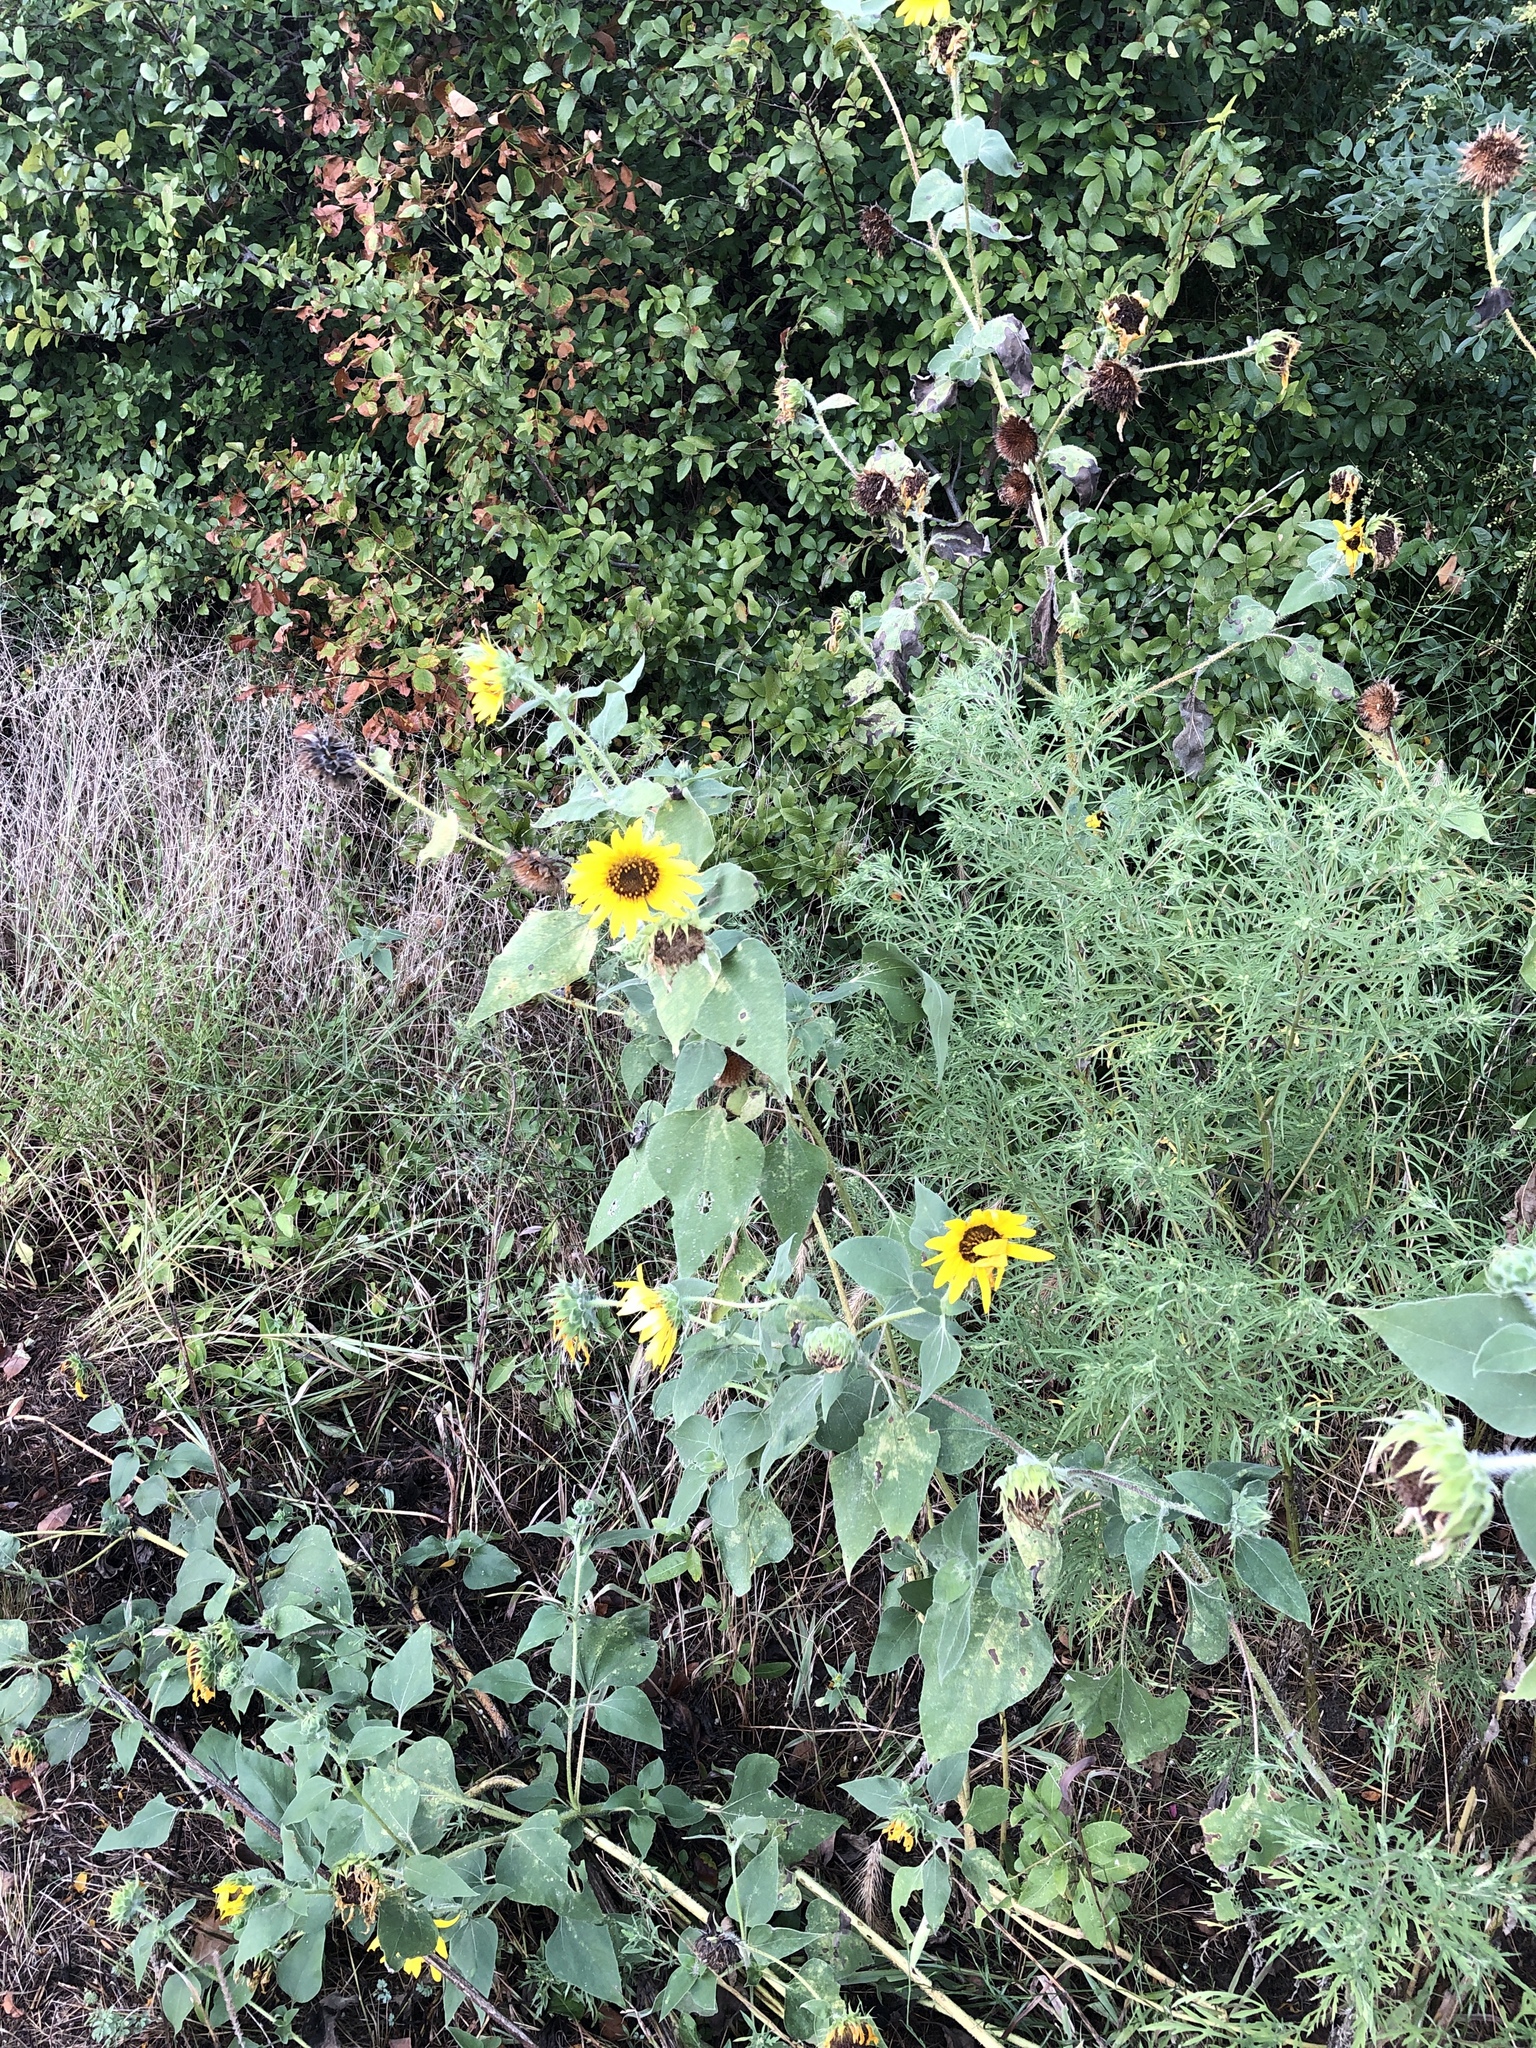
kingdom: Plantae
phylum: Tracheophyta
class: Magnoliopsida
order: Asterales
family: Asteraceae
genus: Helianthus
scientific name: Helianthus annuus
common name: Sunflower
